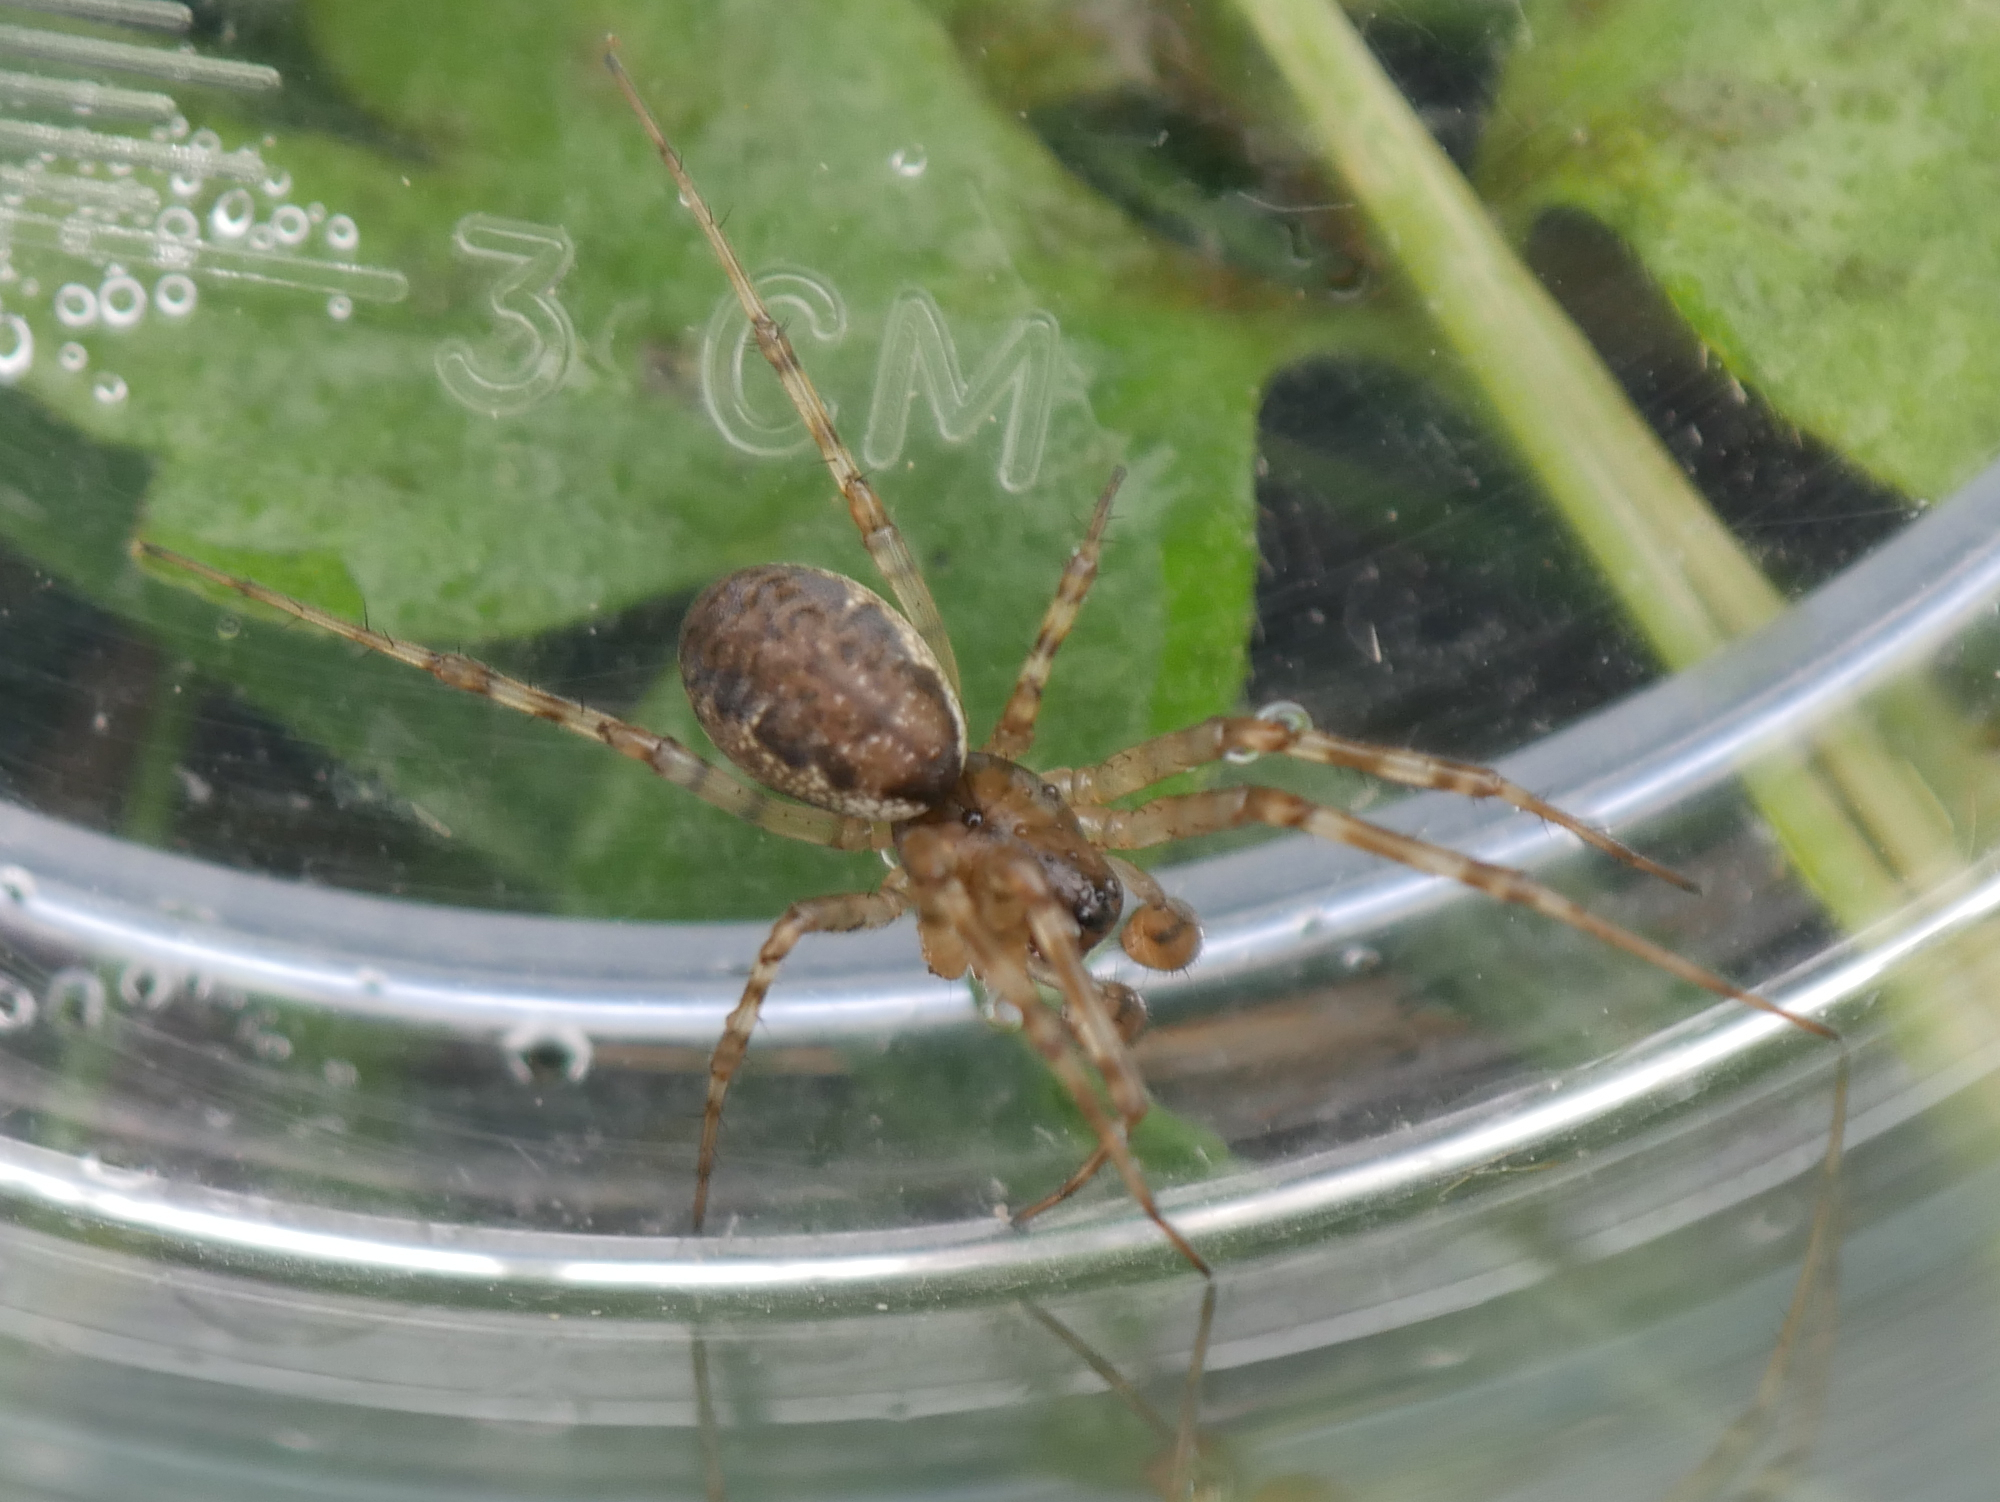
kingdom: Animalia
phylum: Arthropoda
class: Arachnida
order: Araneae
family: Linyphiidae
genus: Neriene
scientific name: Neriene montana
